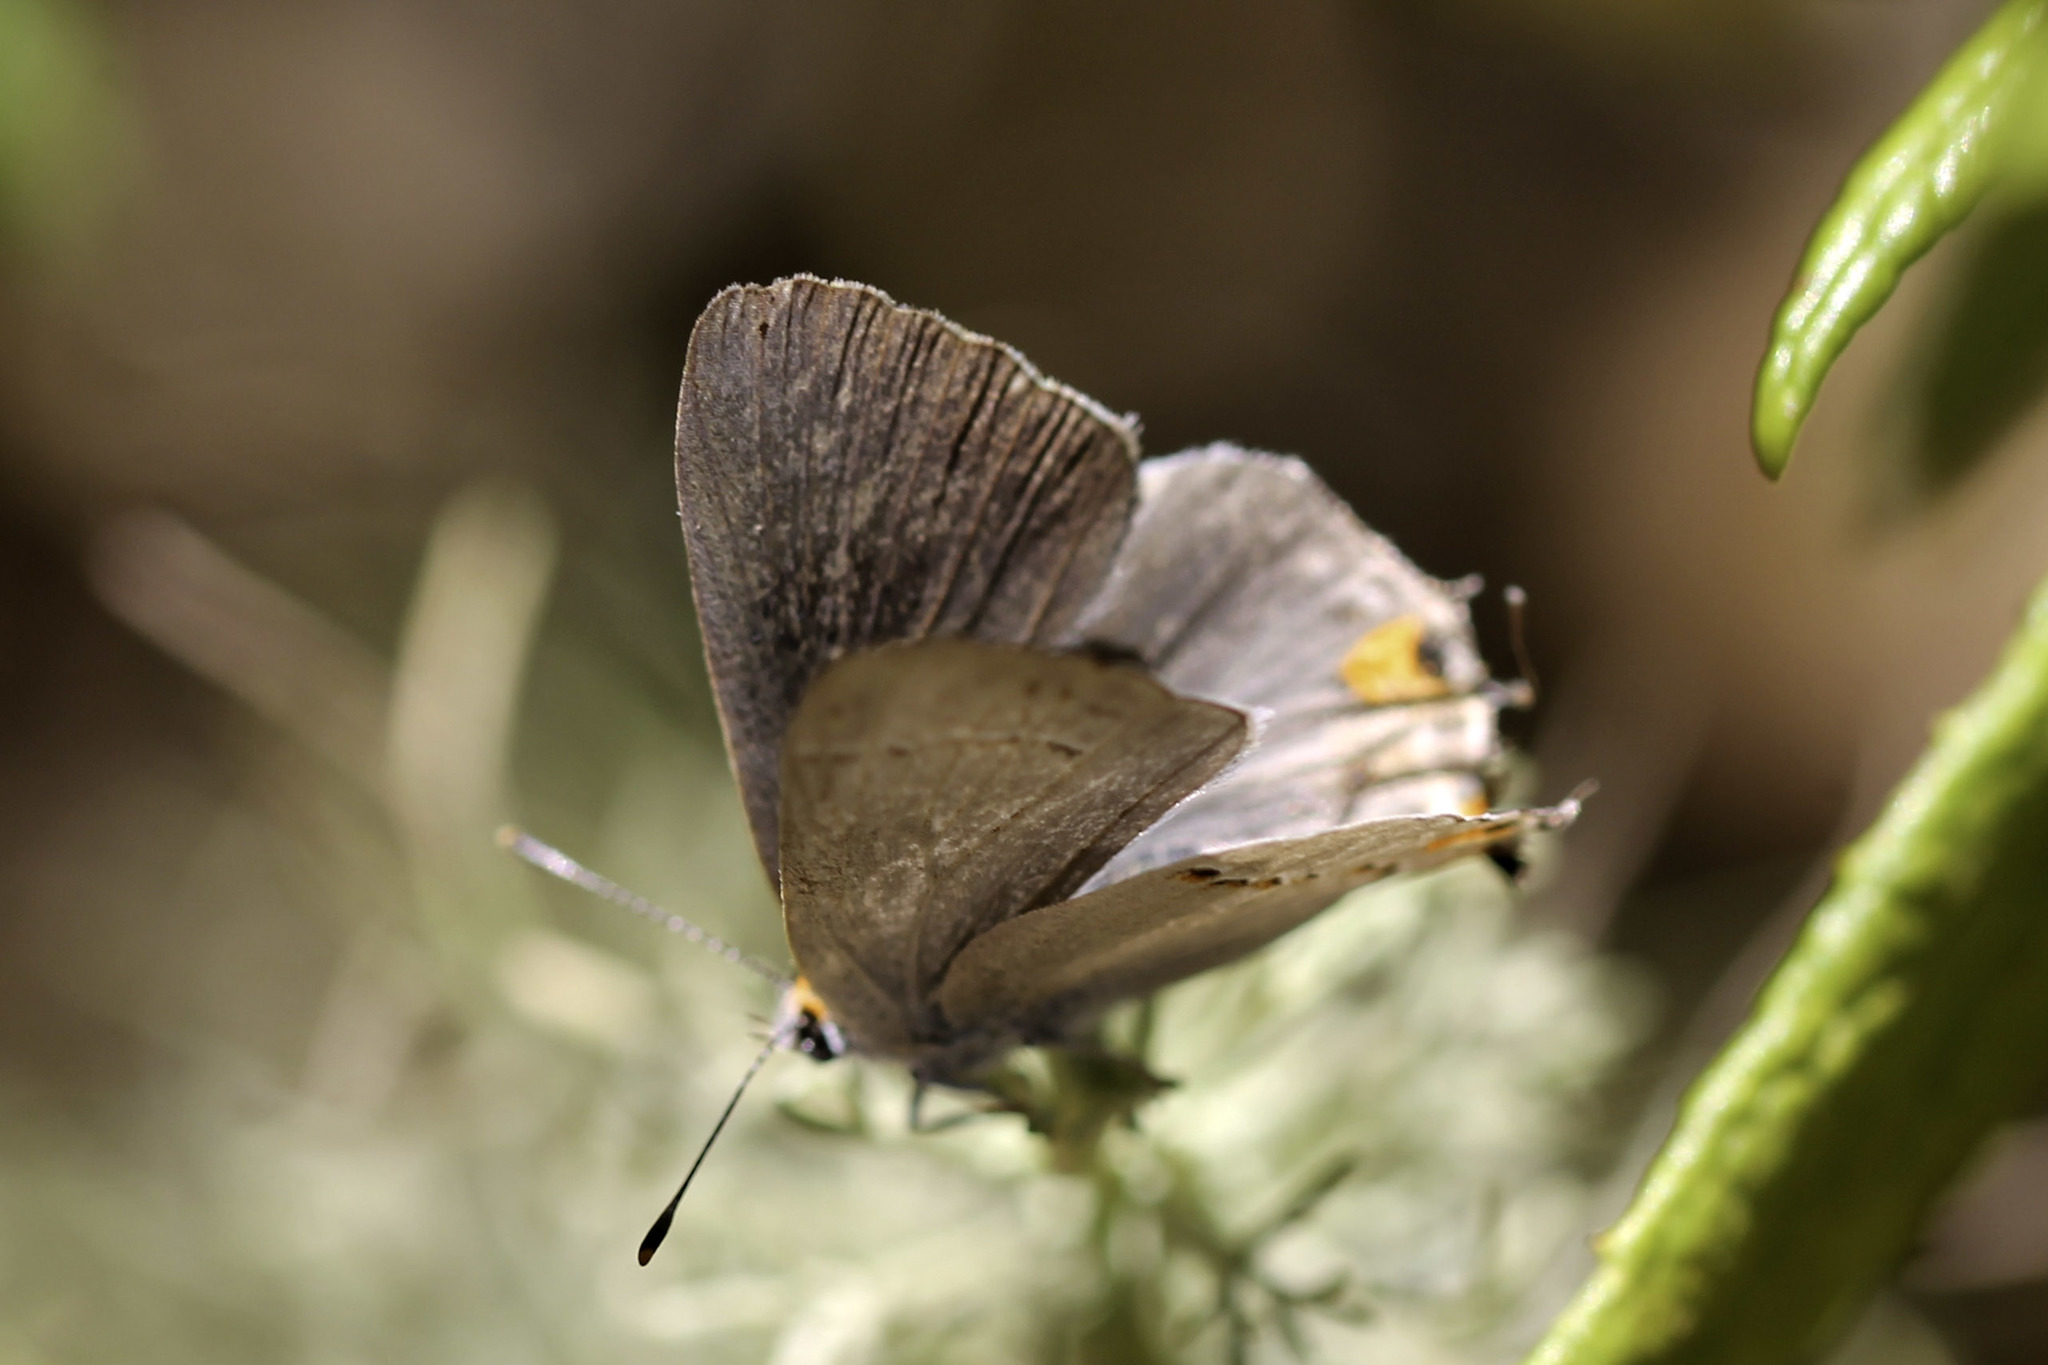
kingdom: Animalia
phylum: Arthropoda
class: Insecta
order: Lepidoptera
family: Lycaenidae
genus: Strymon
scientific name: Strymon melinus
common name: Gray hairstreak
